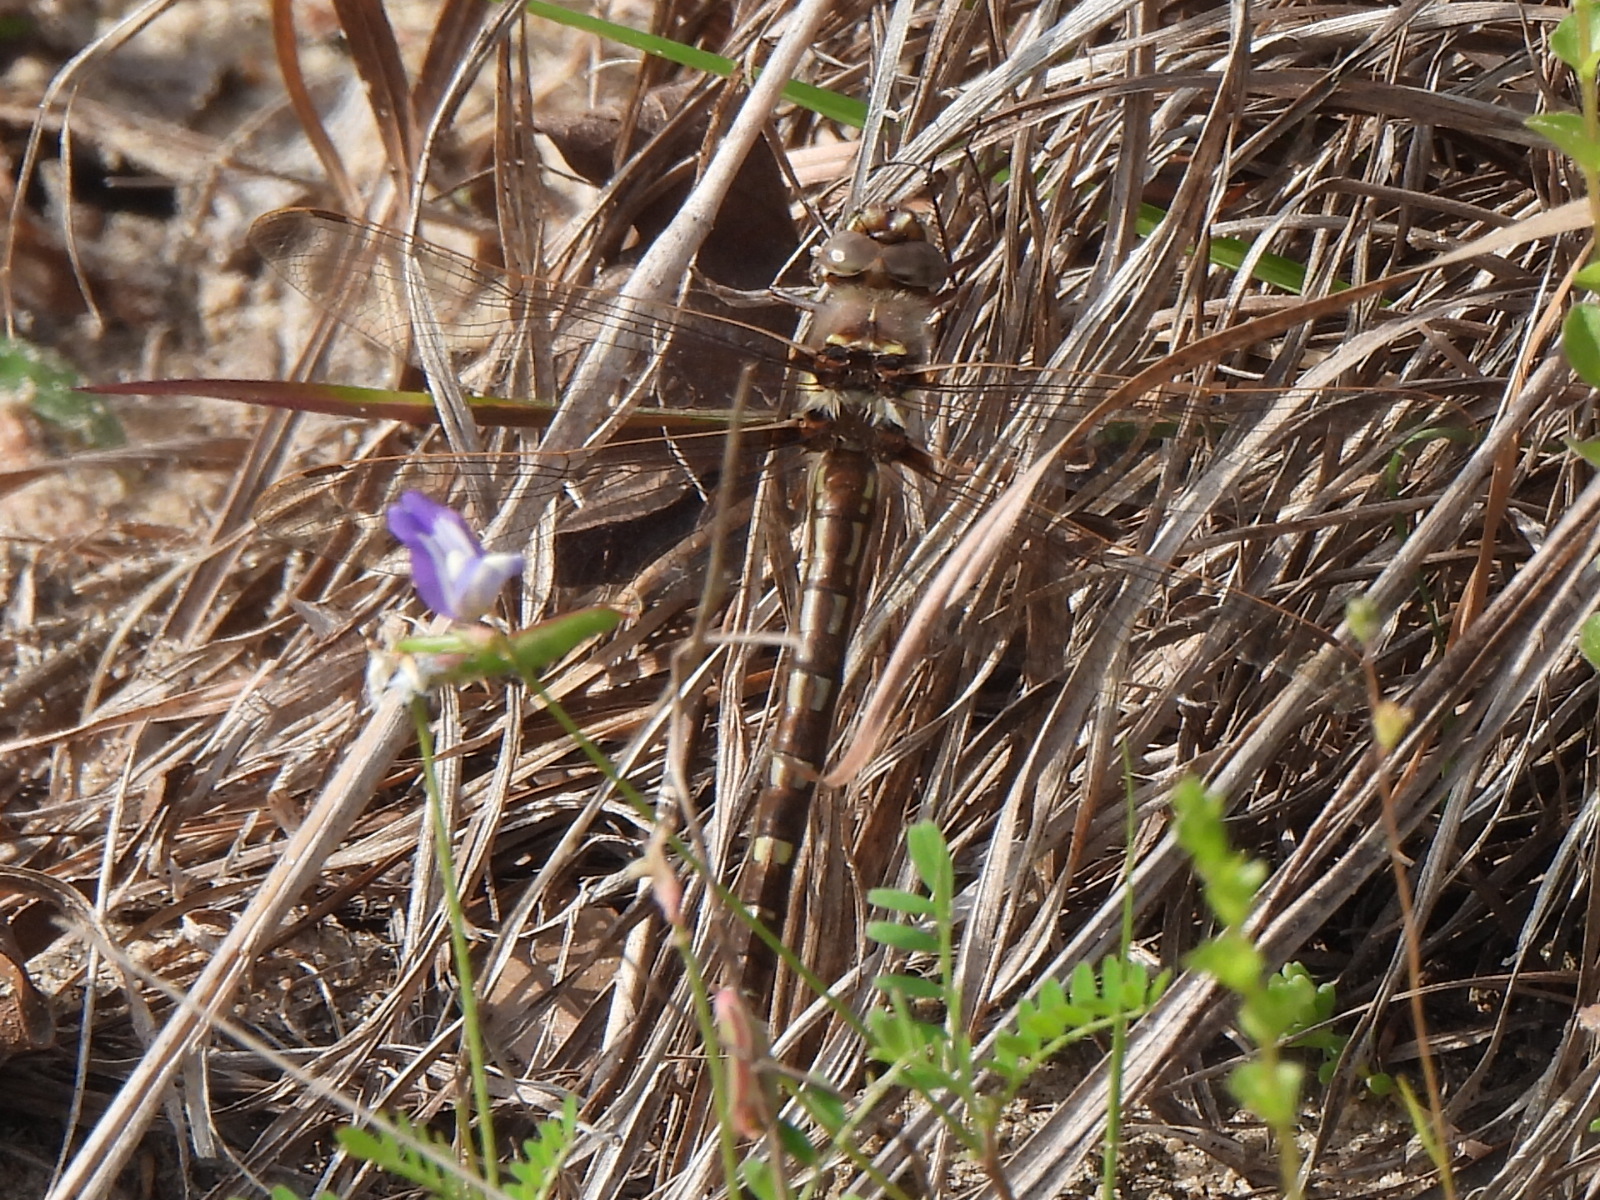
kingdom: Animalia
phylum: Arthropoda
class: Insecta
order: Odonata
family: Macromiidae
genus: Didymops
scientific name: Didymops transversa
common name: Stream cruiser
